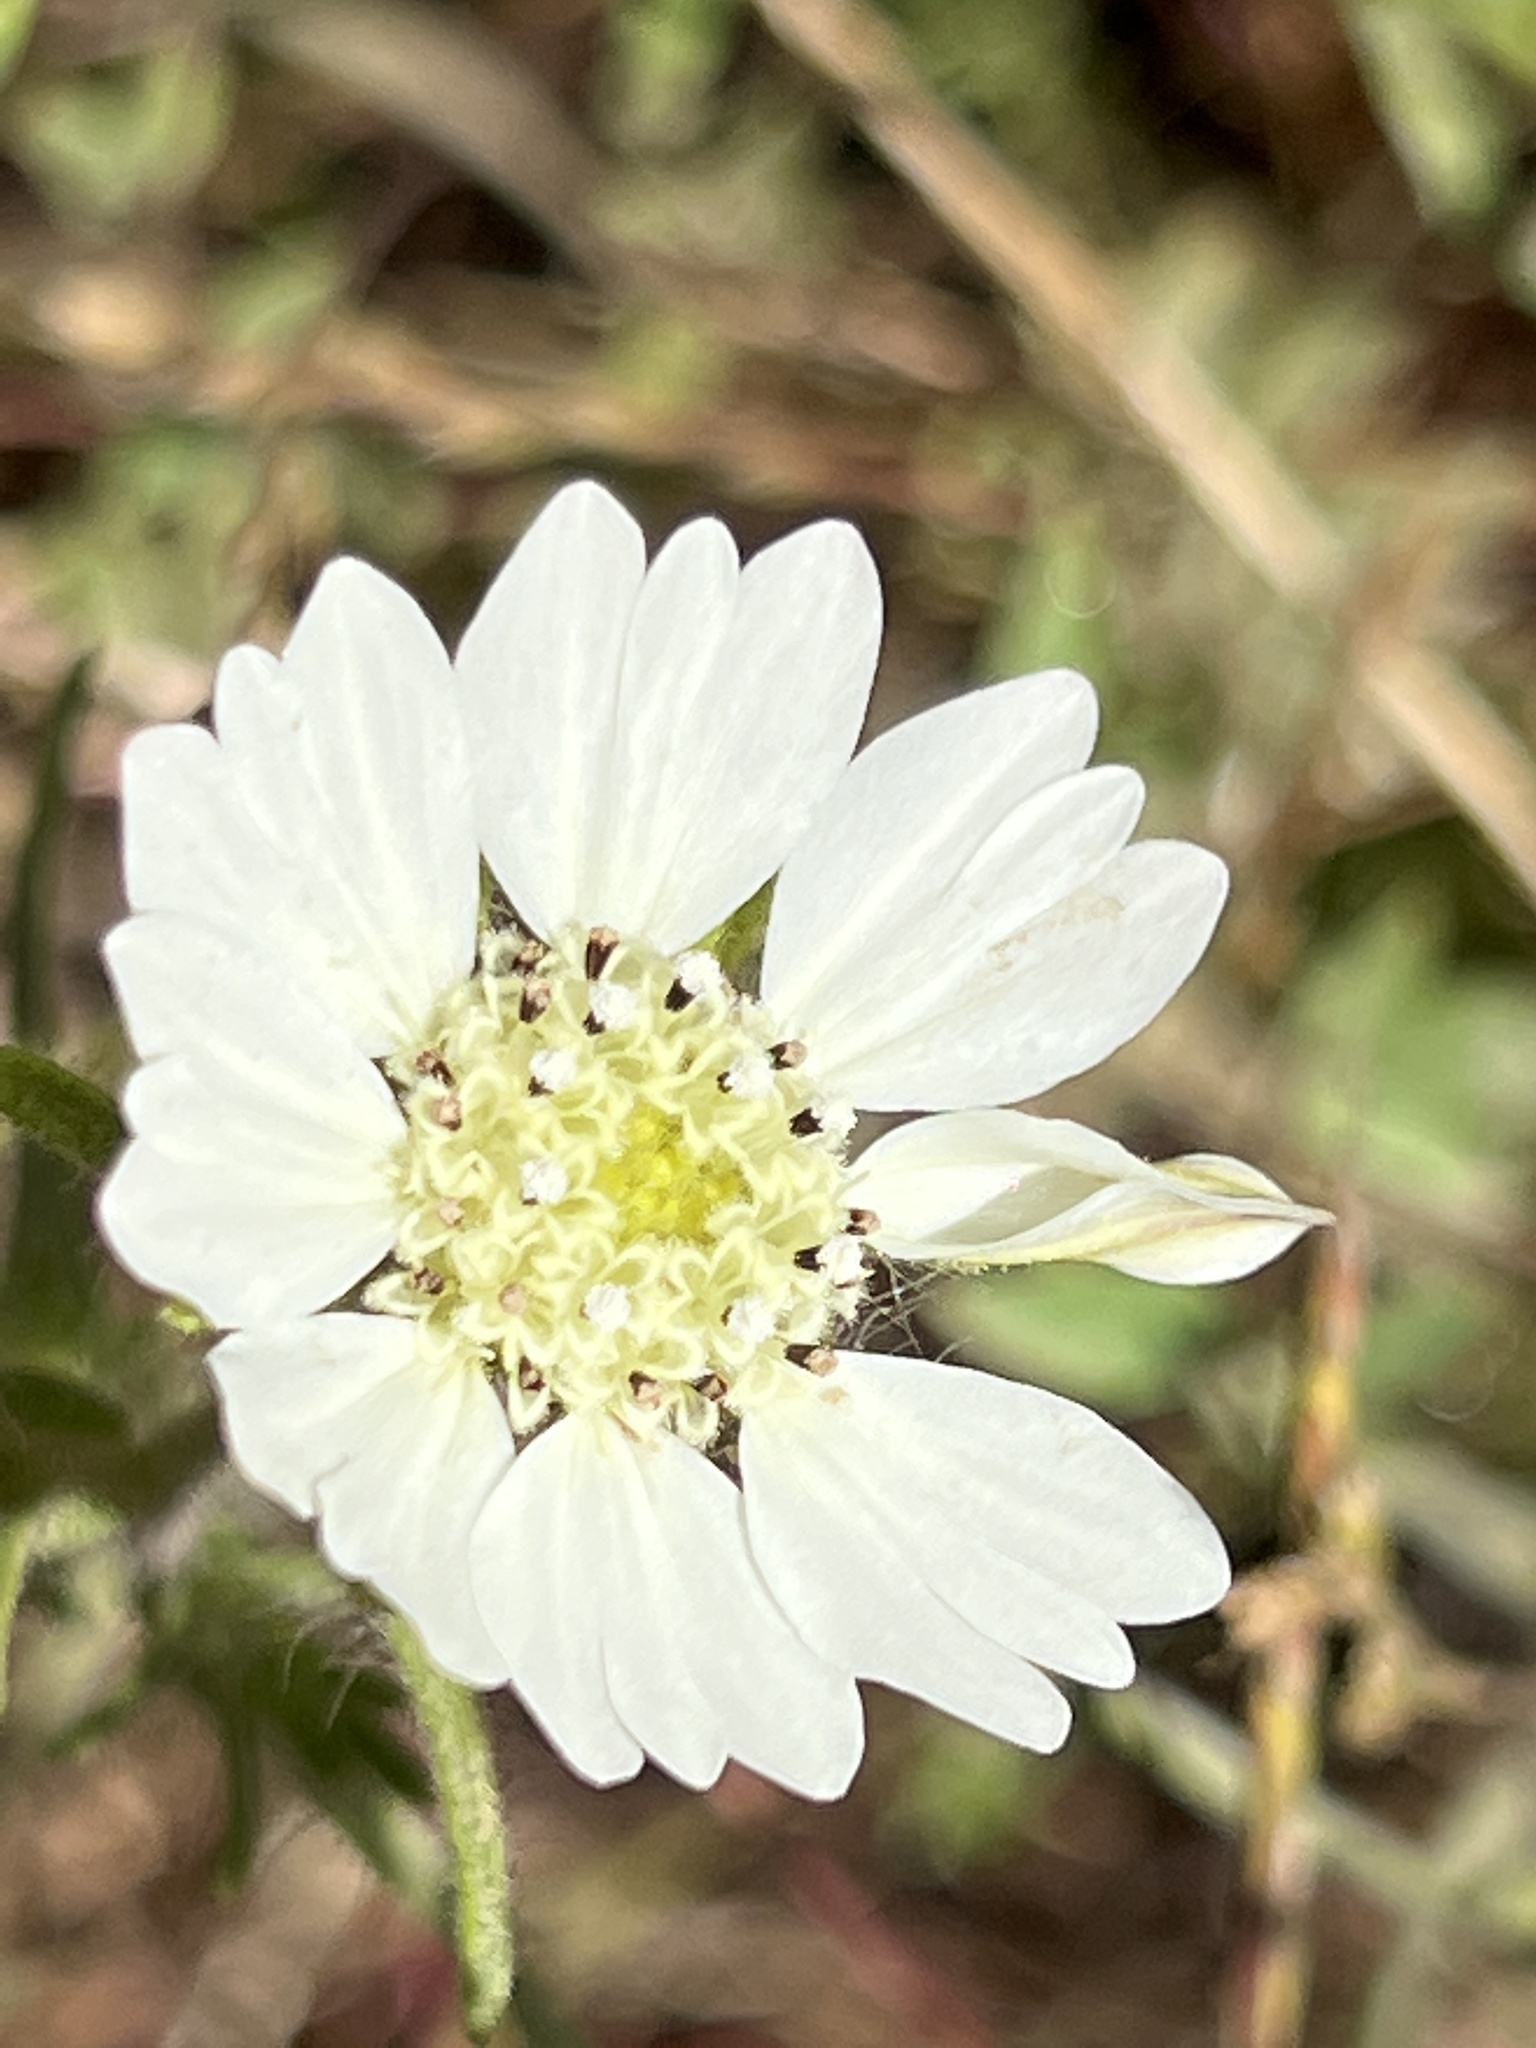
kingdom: Plantae
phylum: Tracheophyta
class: Magnoliopsida
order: Asterales
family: Asteraceae
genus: Hemizonia
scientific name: Hemizonia congesta
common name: Hayfield tarweed
